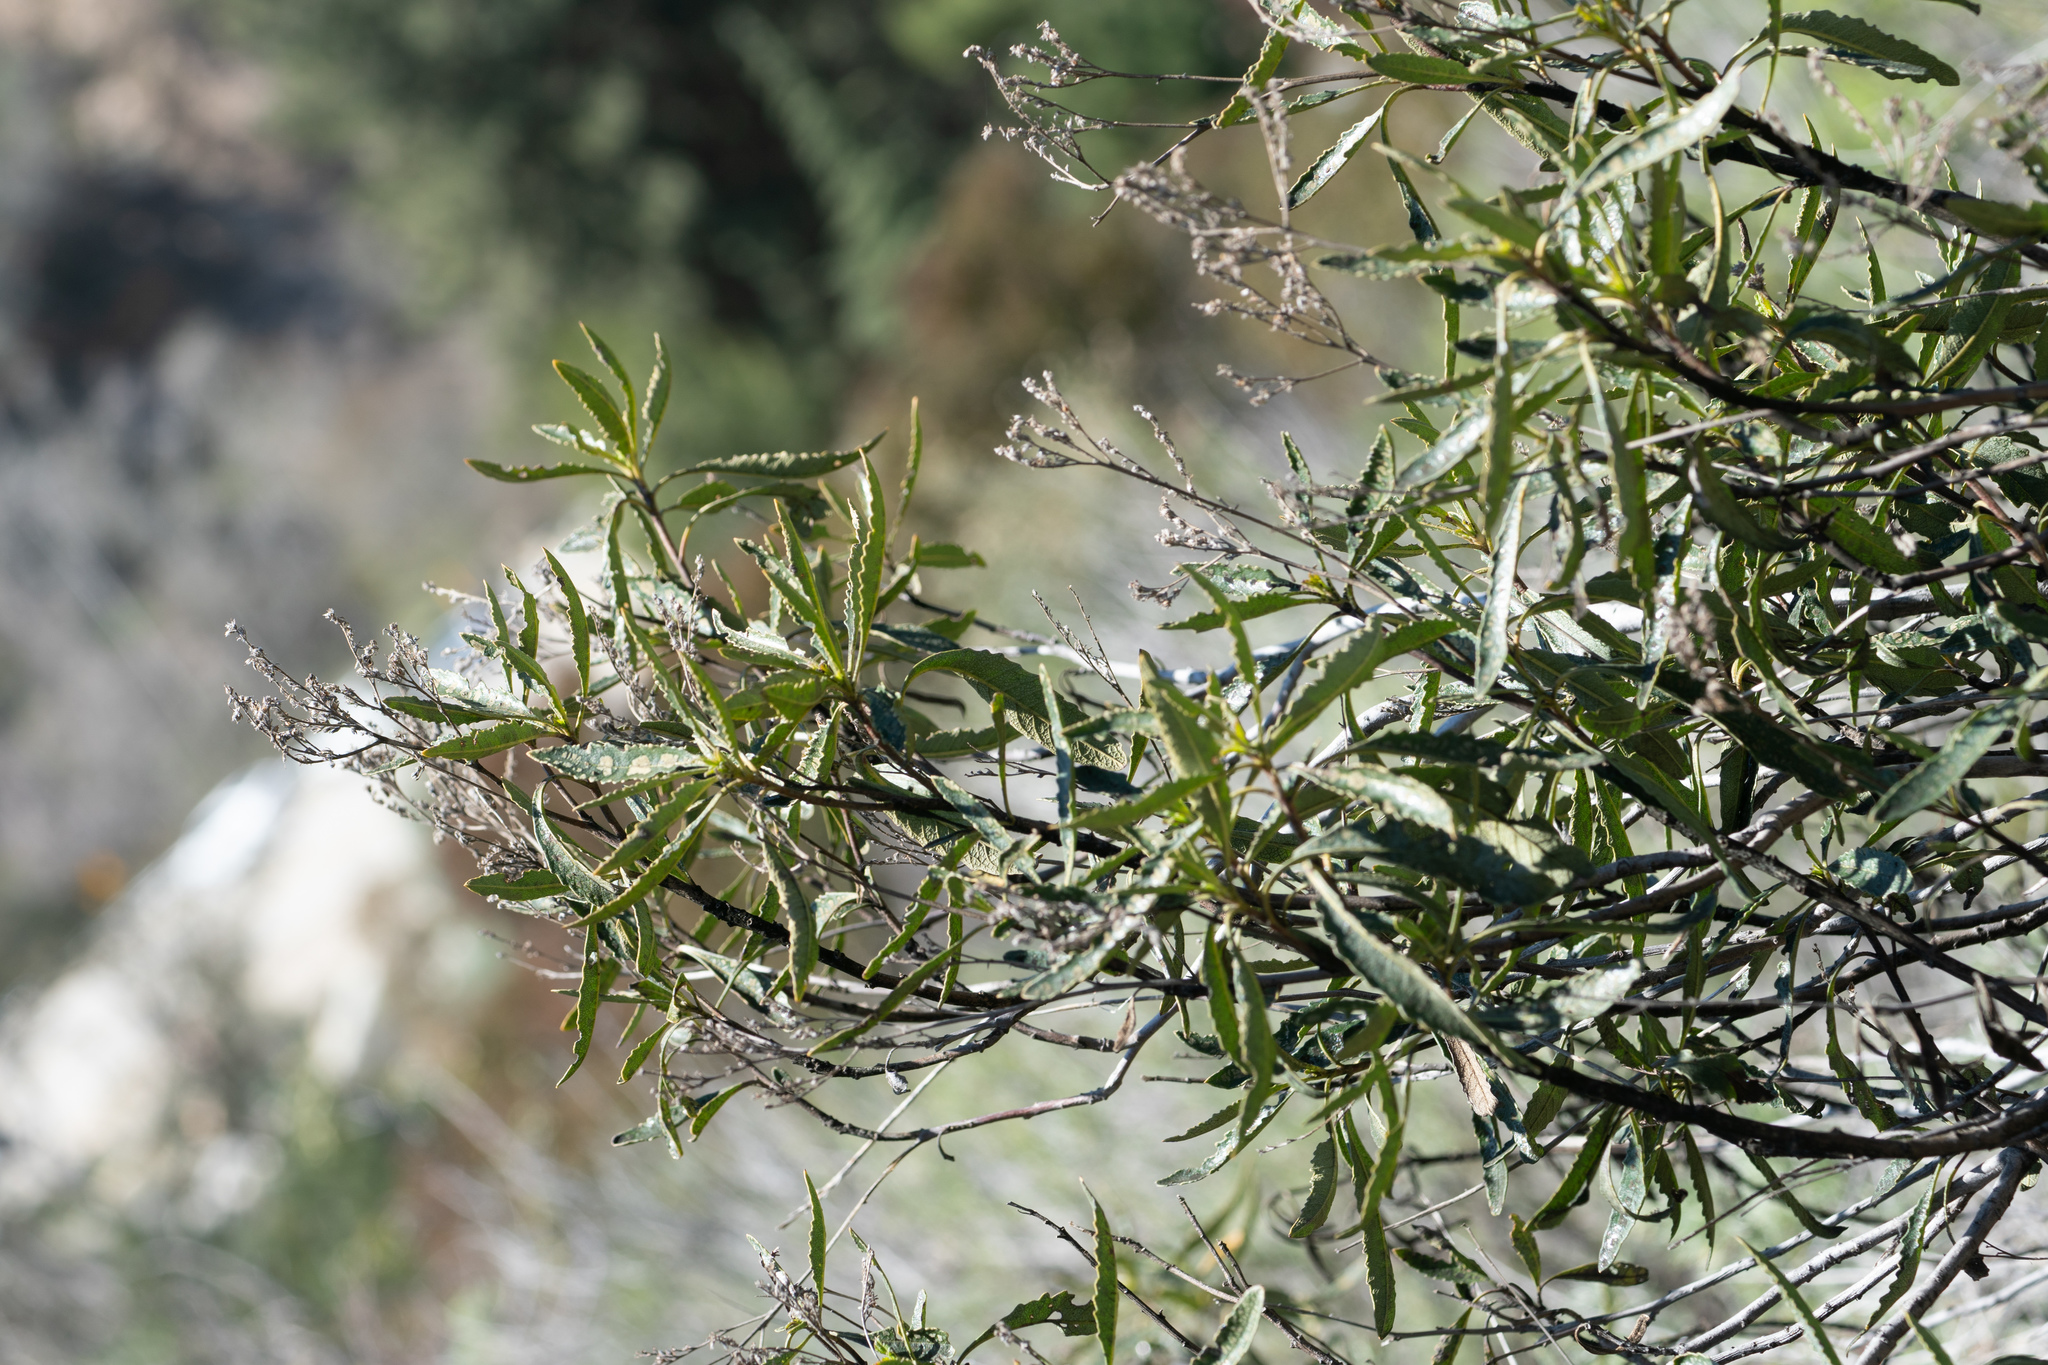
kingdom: Plantae
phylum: Tracheophyta
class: Magnoliopsida
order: Boraginales
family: Namaceae
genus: Eriodictyon
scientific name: Eriodictyon trichocalyx
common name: Hairy yerba-santa
